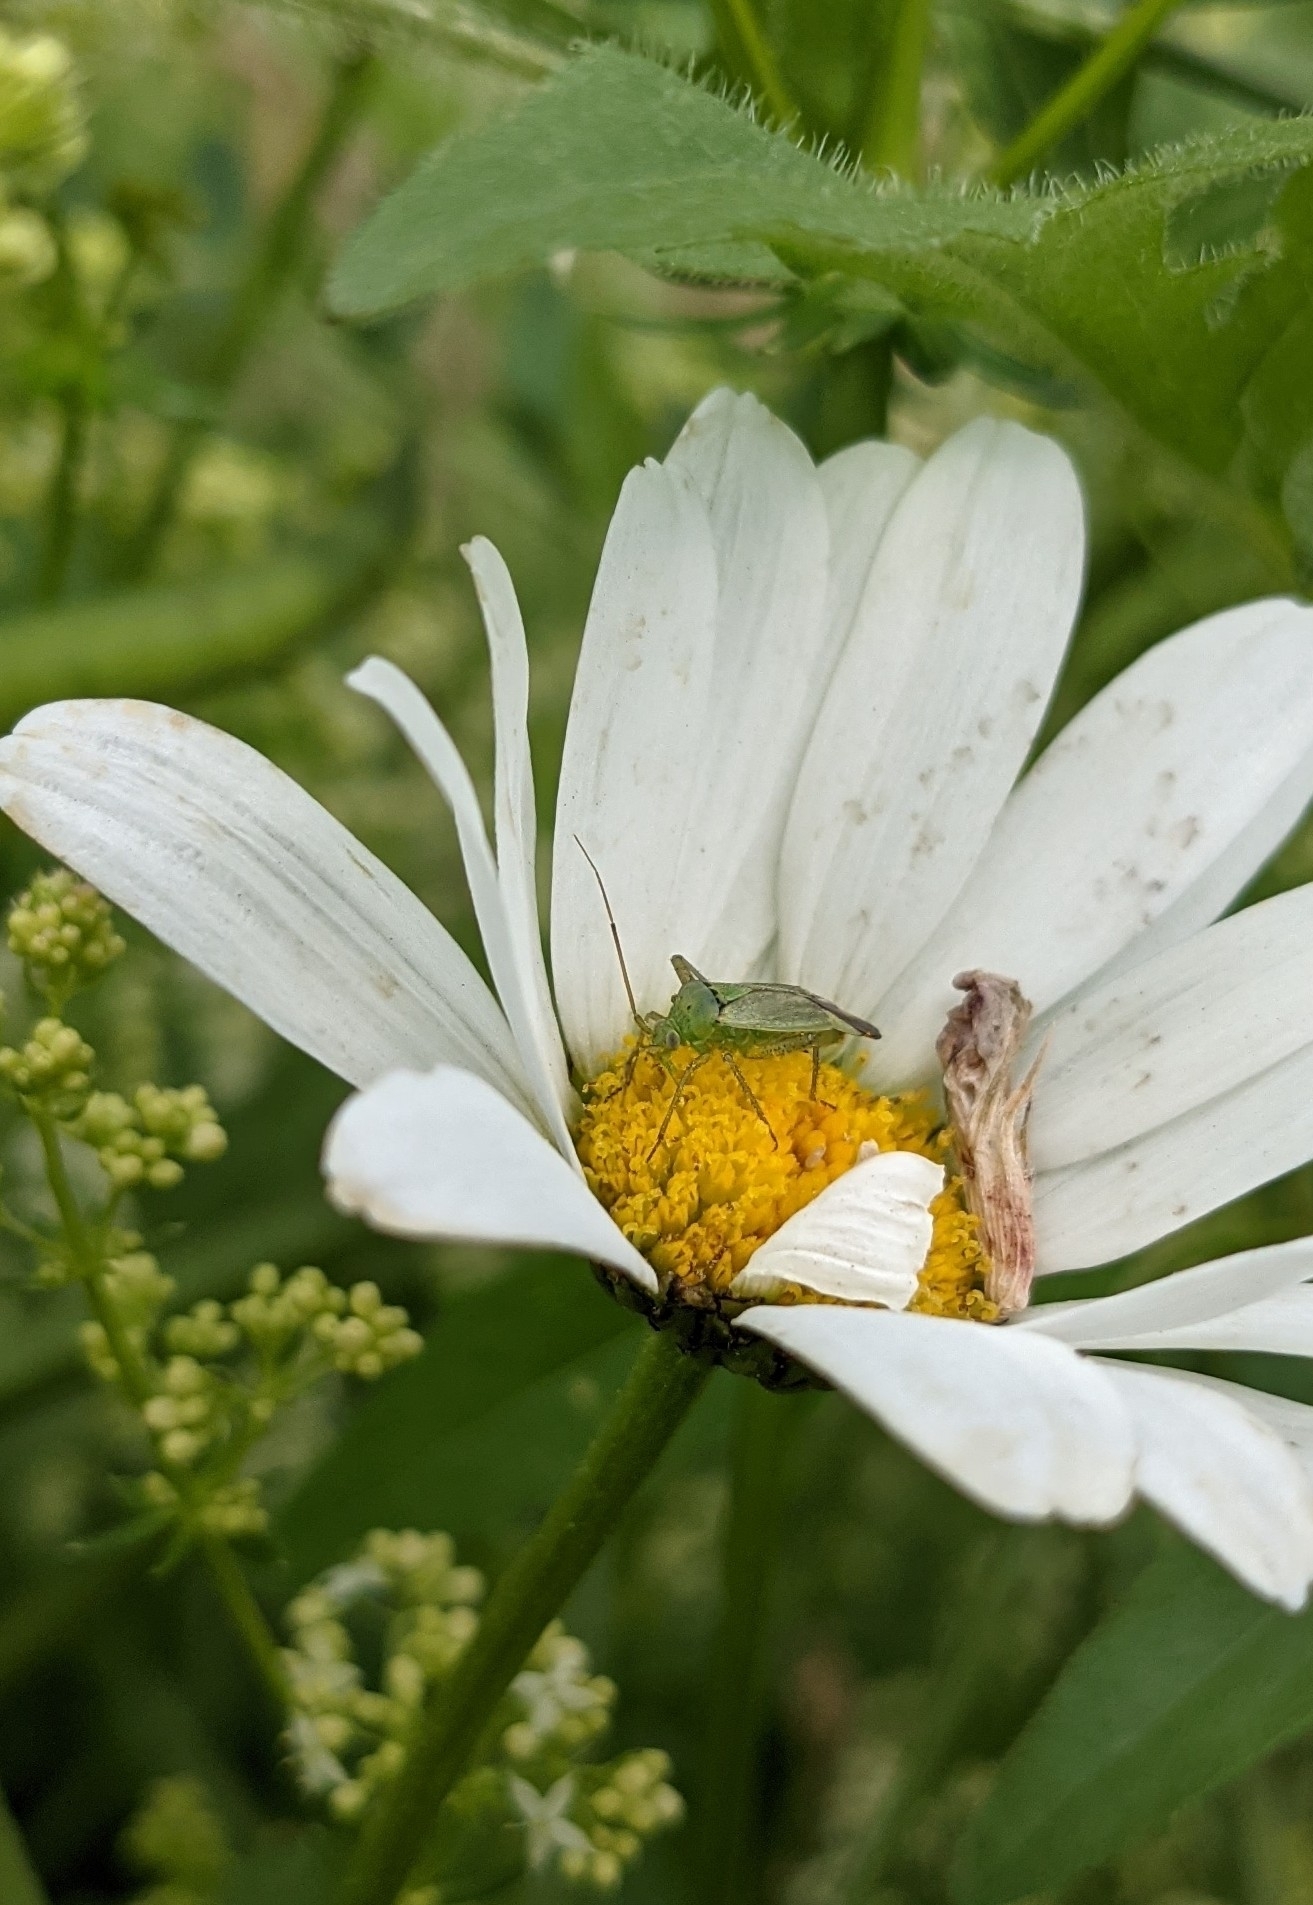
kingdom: Animalia
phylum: Arthropoda
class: Insecta
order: Hemiptera
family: Miridae
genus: Closterotomus
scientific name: Closterotomus norvegicus
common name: Plant bug
